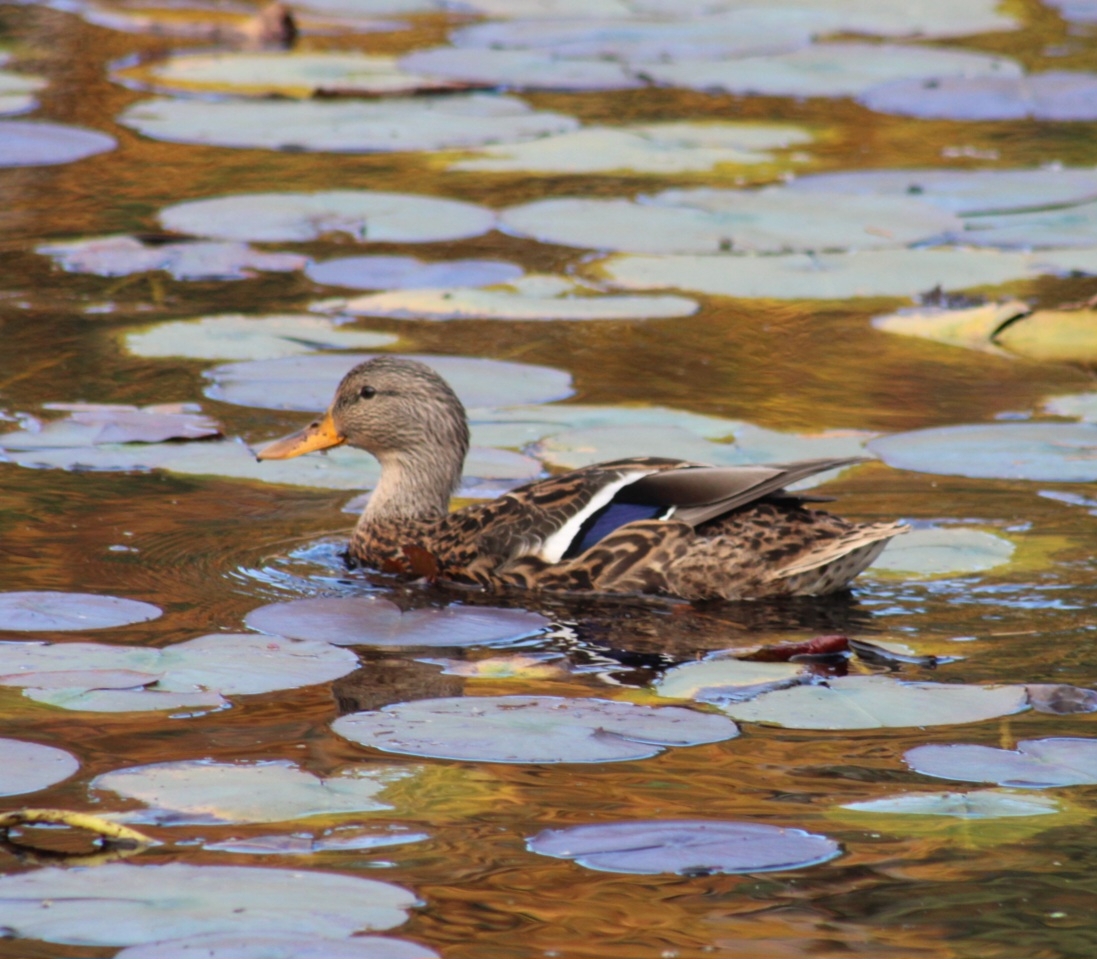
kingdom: Animalia
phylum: Chordata
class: Aves
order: Anseriformes
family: Anatidae
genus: Anas
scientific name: Anas platyrhynchos
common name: Mallard
